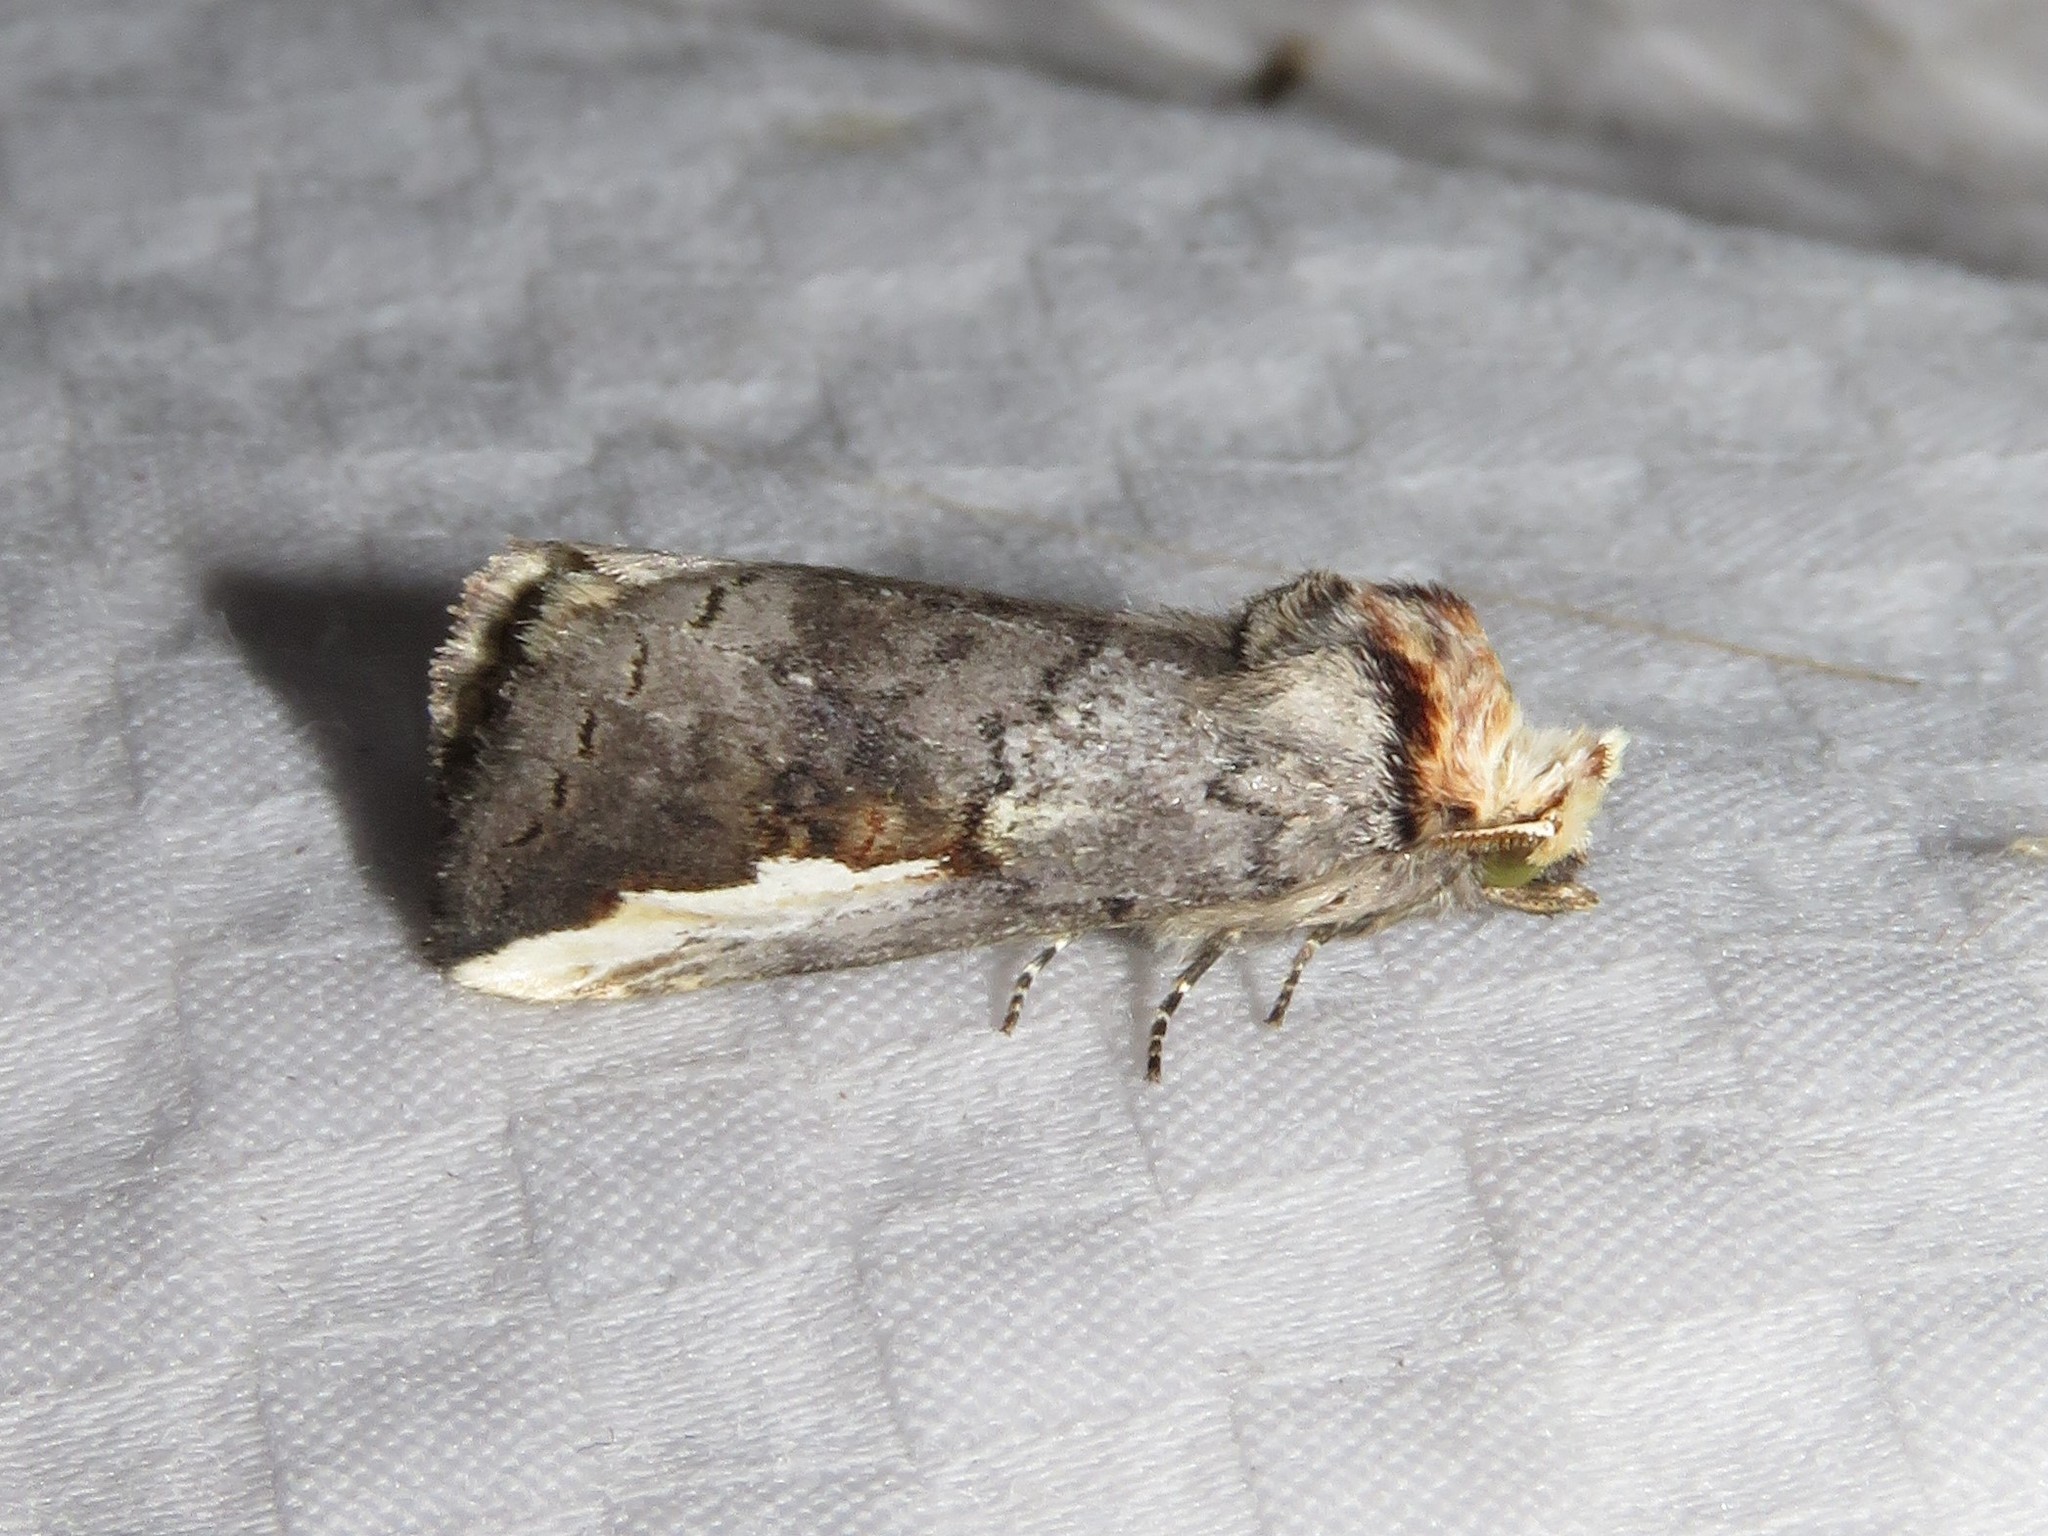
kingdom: Animalia
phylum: Arthropoda
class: Insecta
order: Lepidoptera
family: Notodontidae
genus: Symmerista
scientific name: Symmerista albifrons
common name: White-headed prominent
